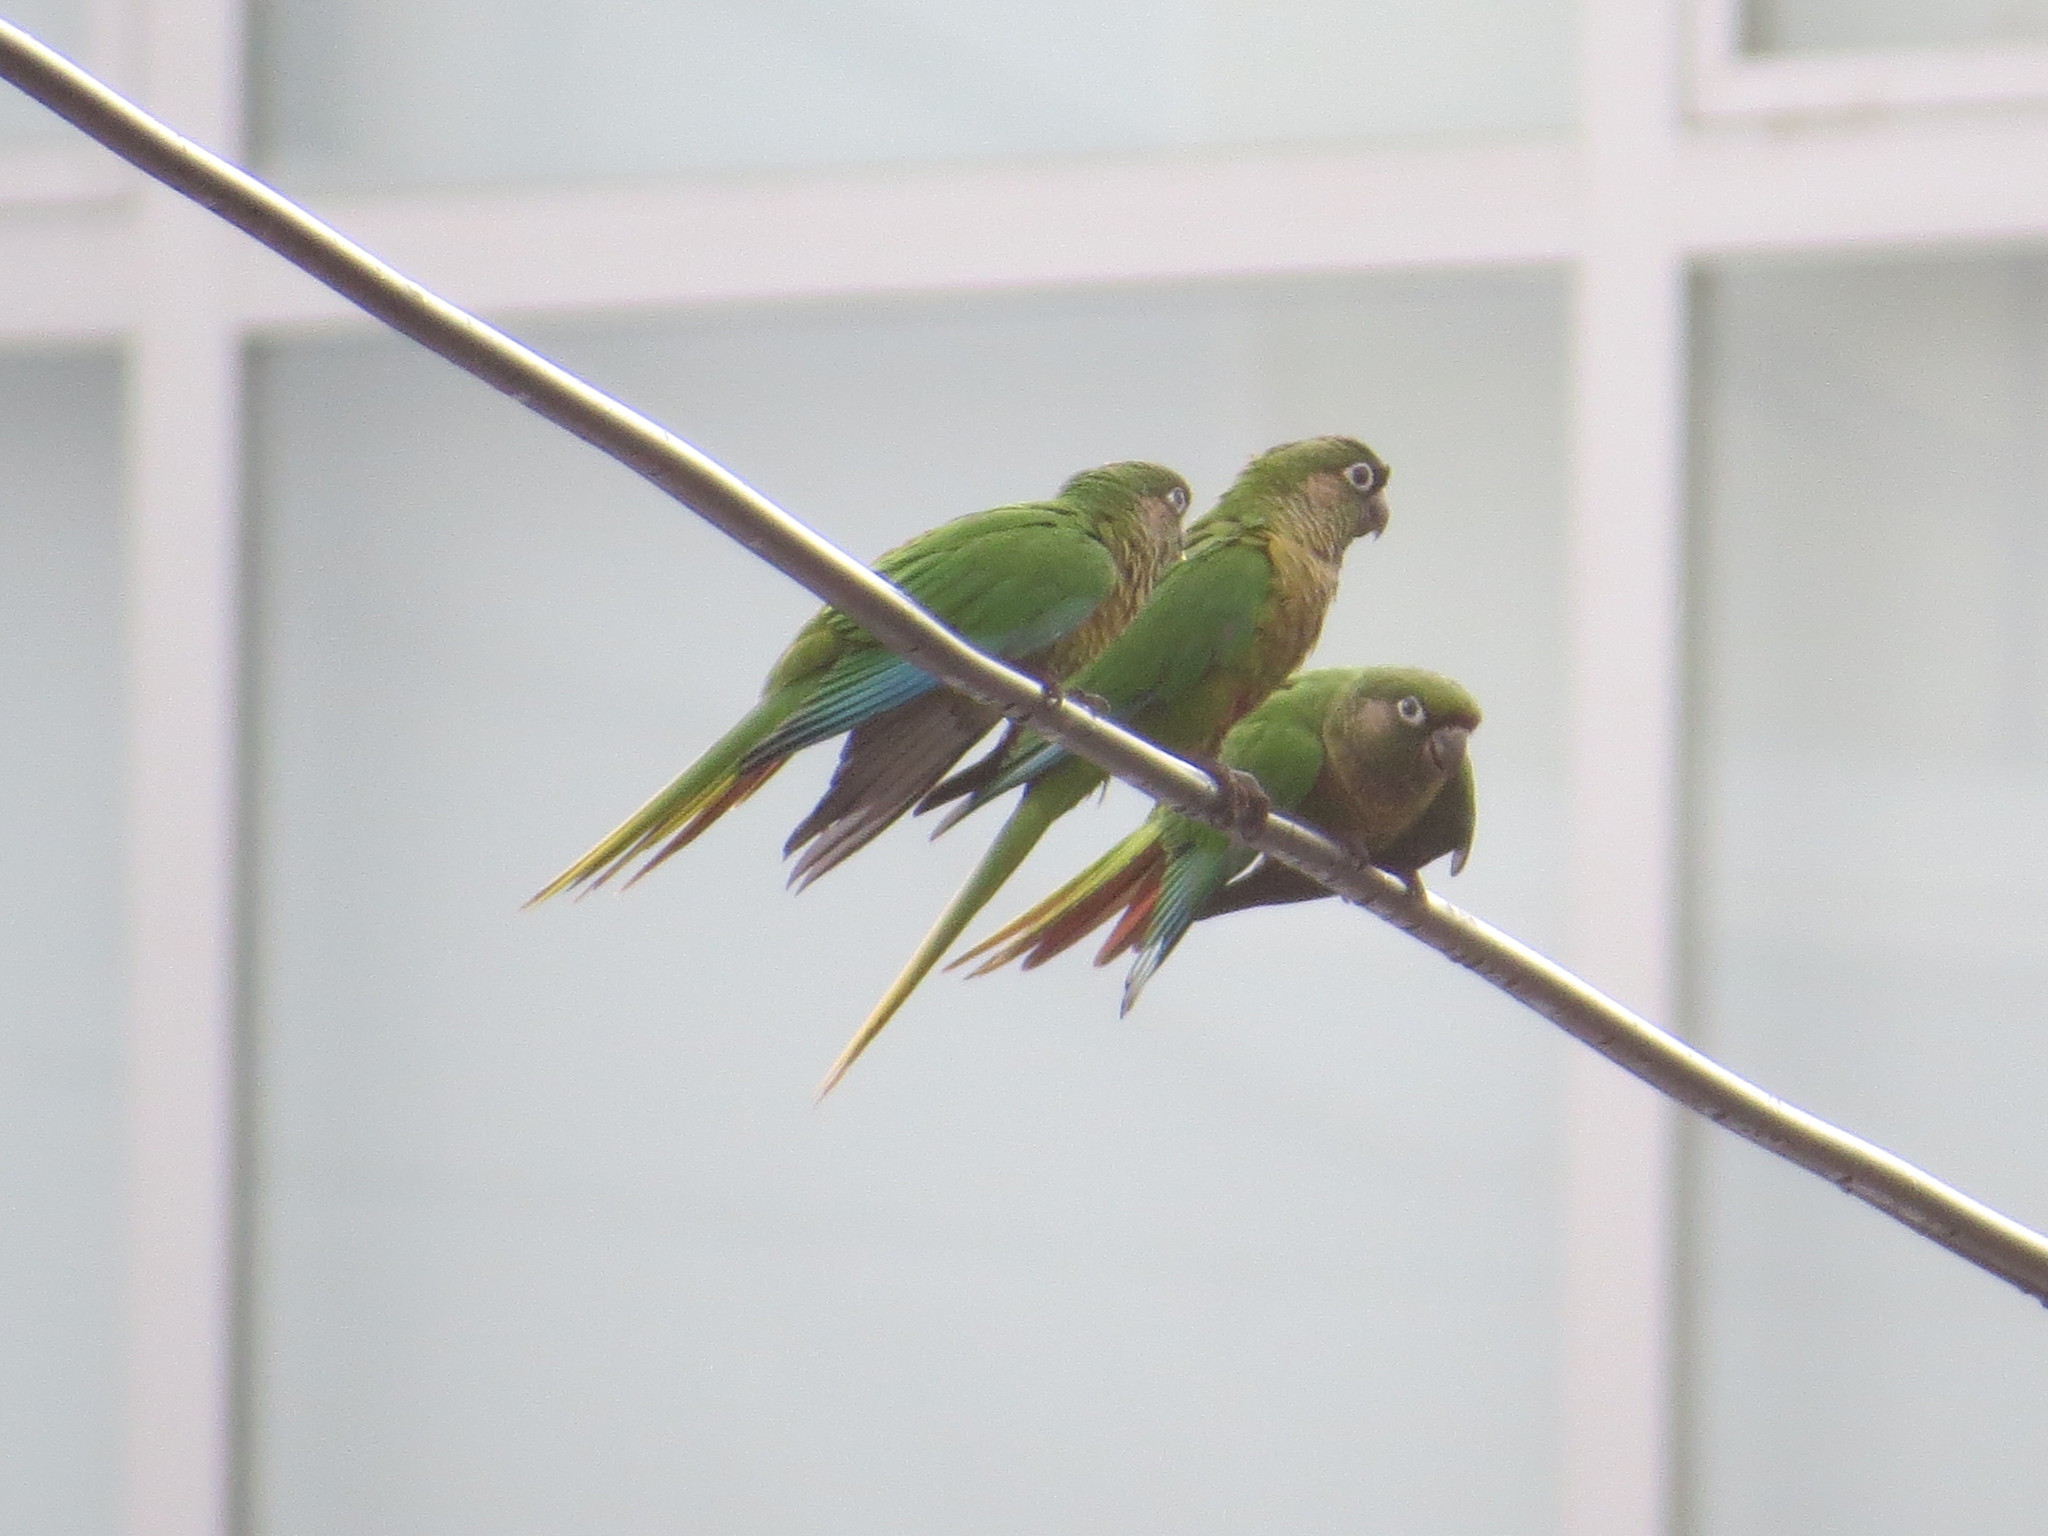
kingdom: Animalia
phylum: Chordata
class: Aves
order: Psittaciformes
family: Psittacidae
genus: Pyrrhura
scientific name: Pyrrhura frontalis
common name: Maroon-bellied parakeet
